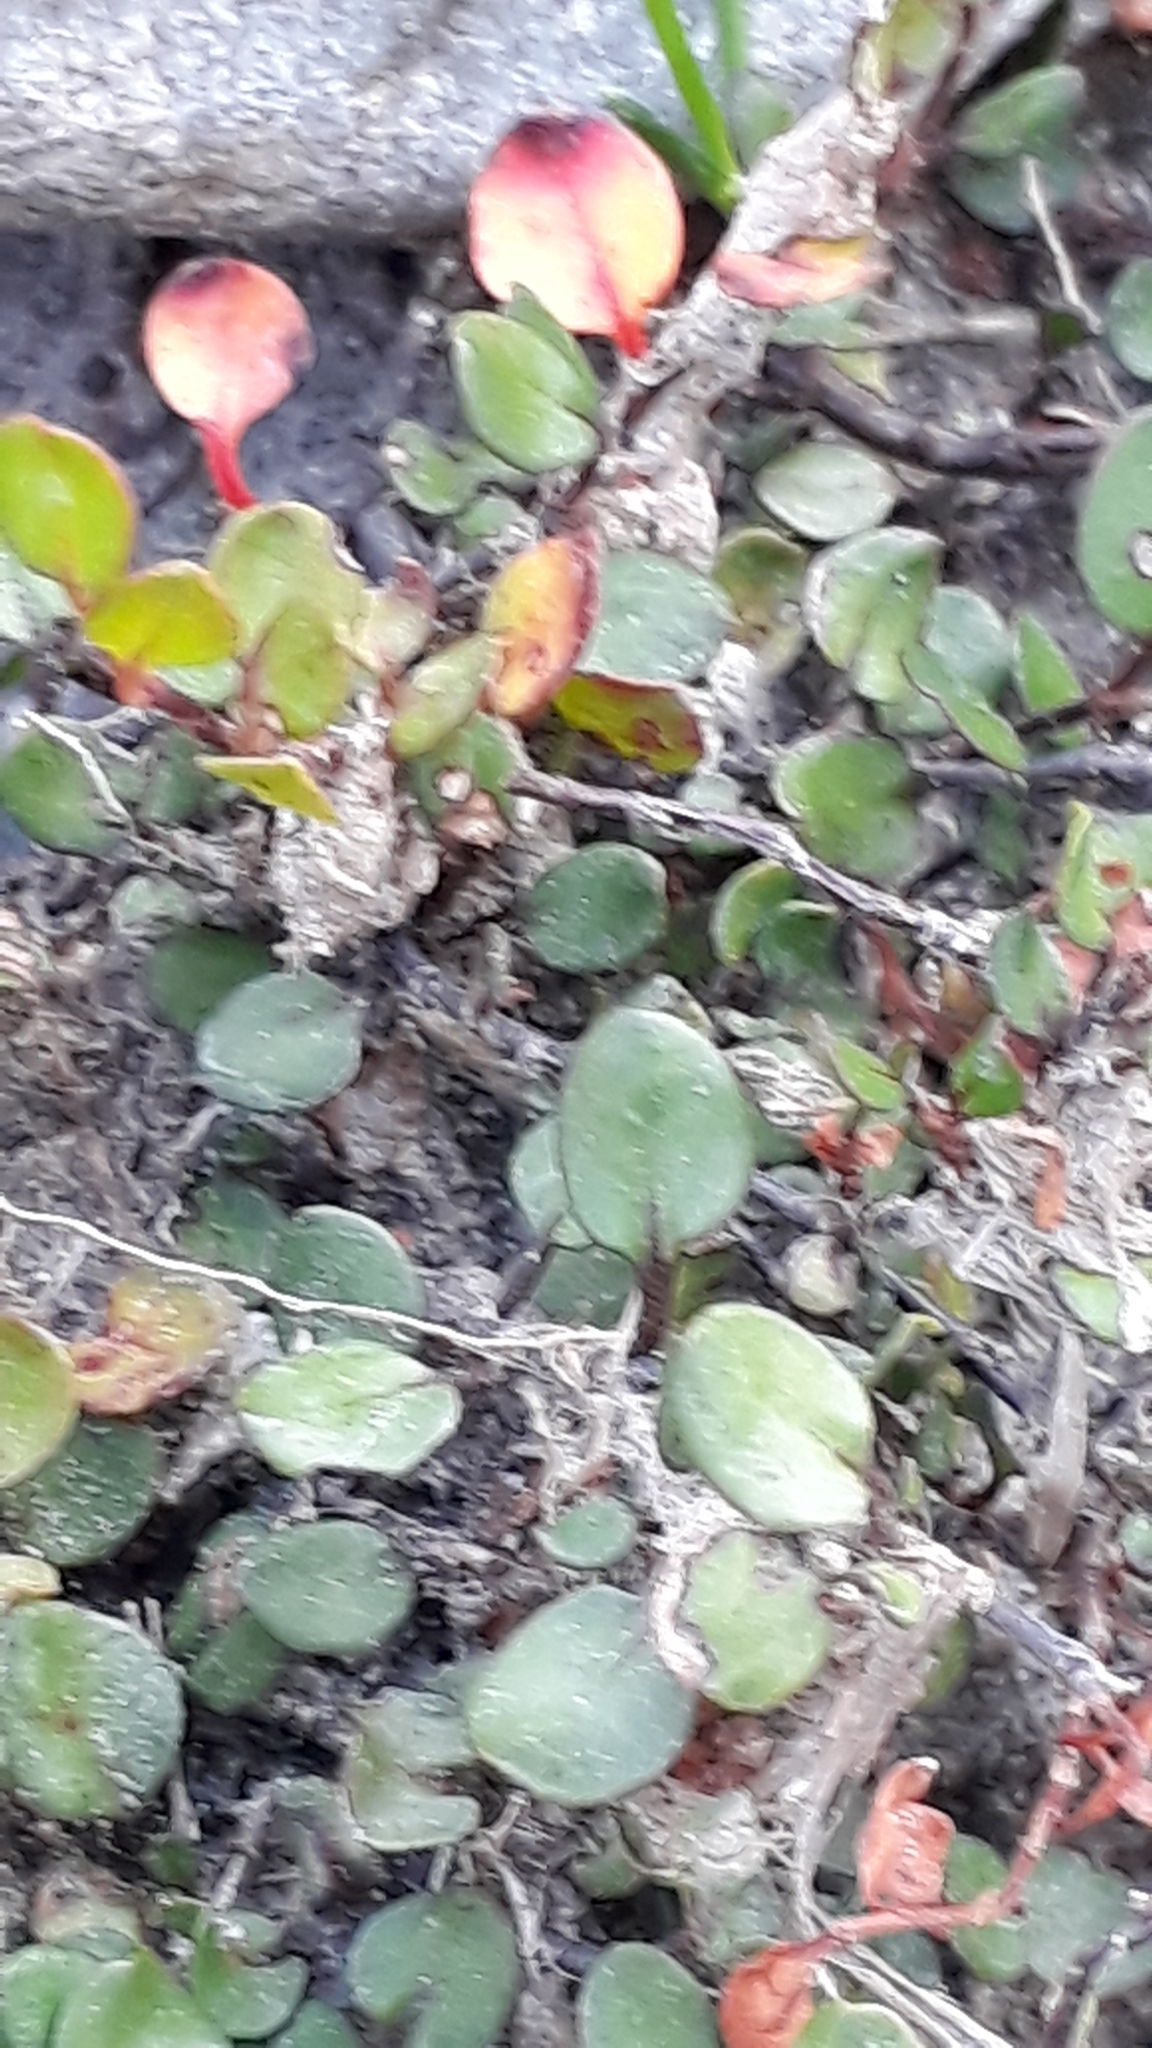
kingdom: Plantae
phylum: Tracheophyta
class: Magnoliopsida
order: Caryophyllales
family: Polygonaceae
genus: Muehlenbeckia
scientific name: Muehlenbeckia axillaris
